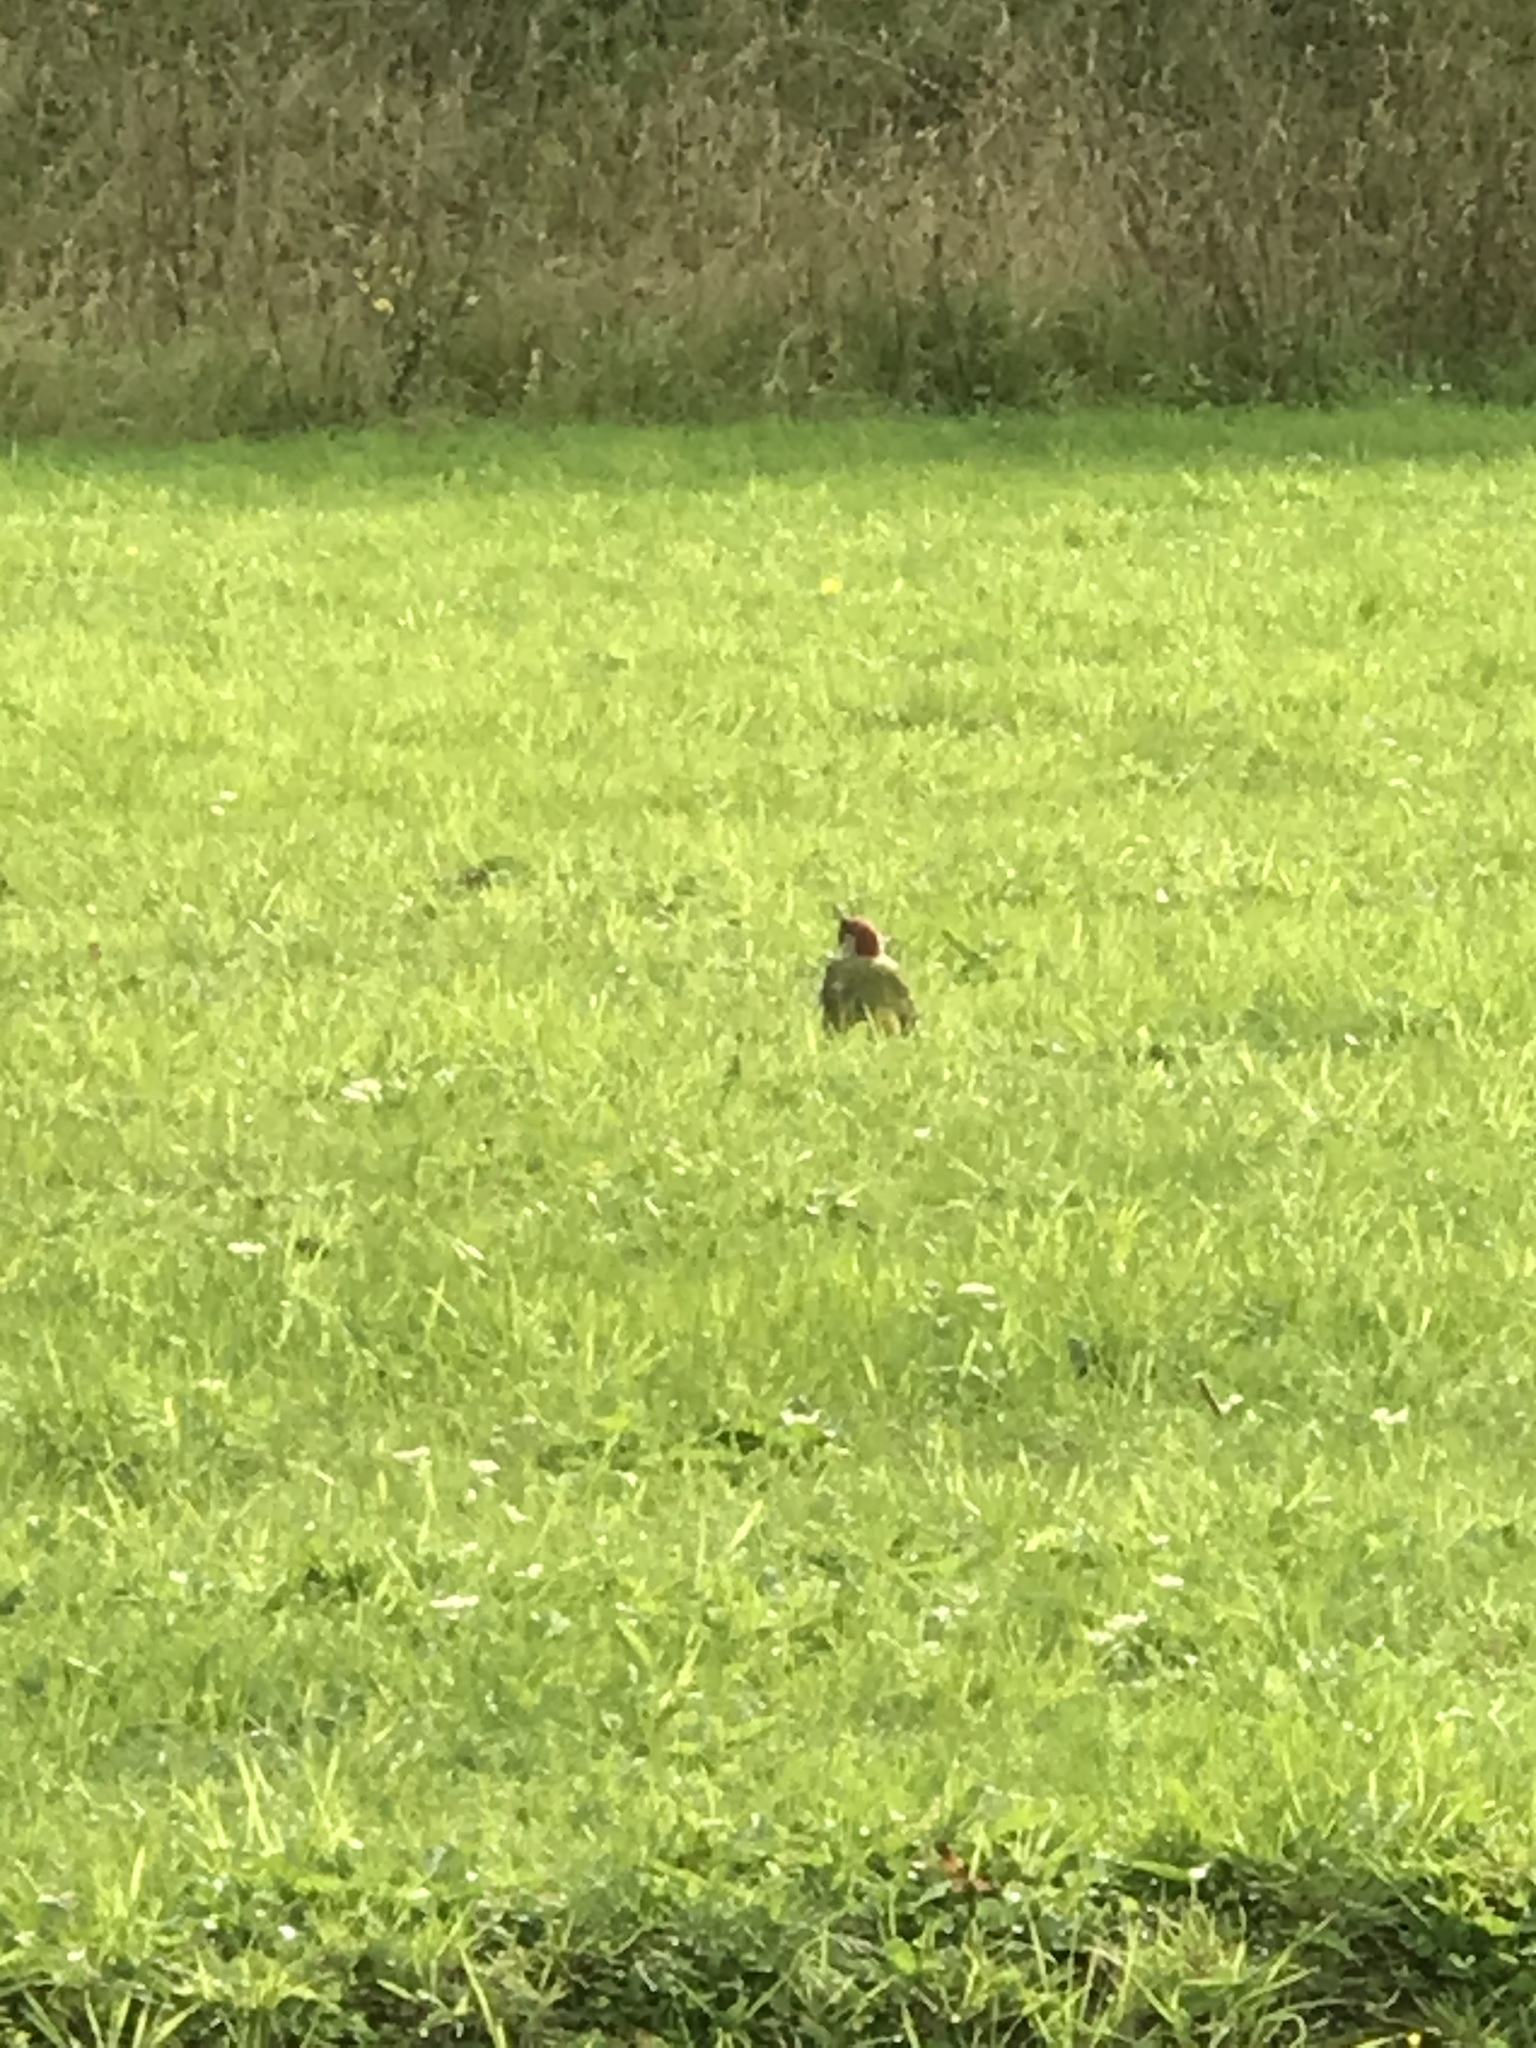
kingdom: Animalia
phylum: Chordata
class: Aves
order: Piciformes
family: Picidae
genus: Picus
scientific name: Picus viridis
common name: European green woodpecker
